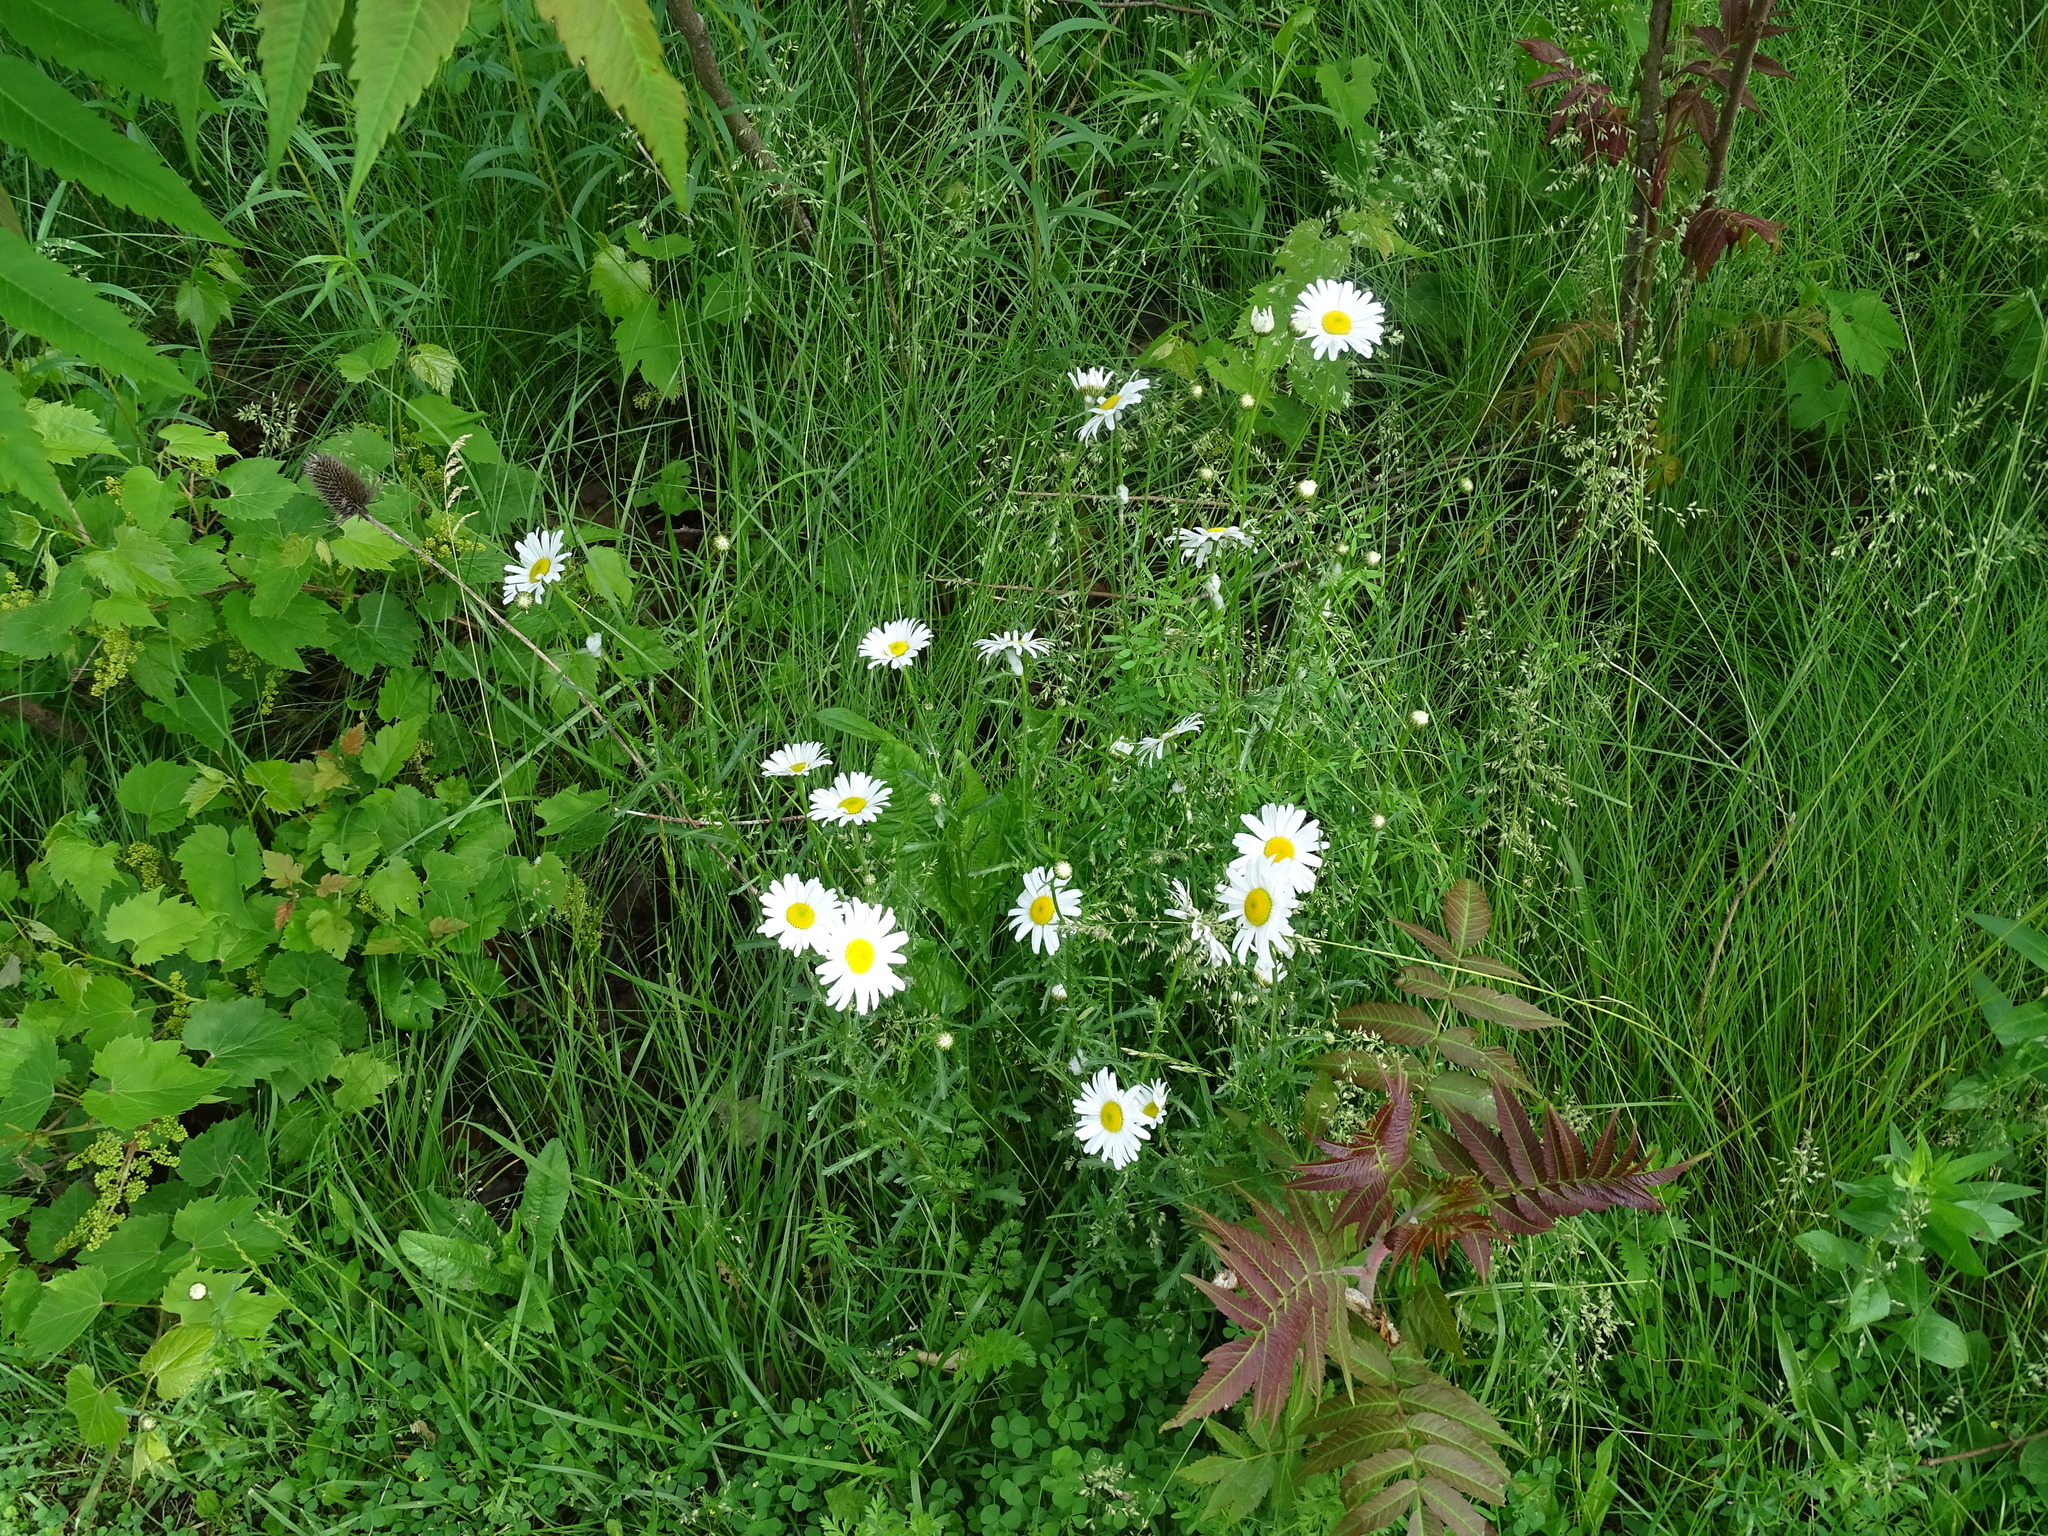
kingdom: Plantae
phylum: Tracheophyta
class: Magnoliopsida
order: Asterales
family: Asteraceae
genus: Leucanthemum
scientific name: Leucanthemum vulgare
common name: Oxeye daisy
